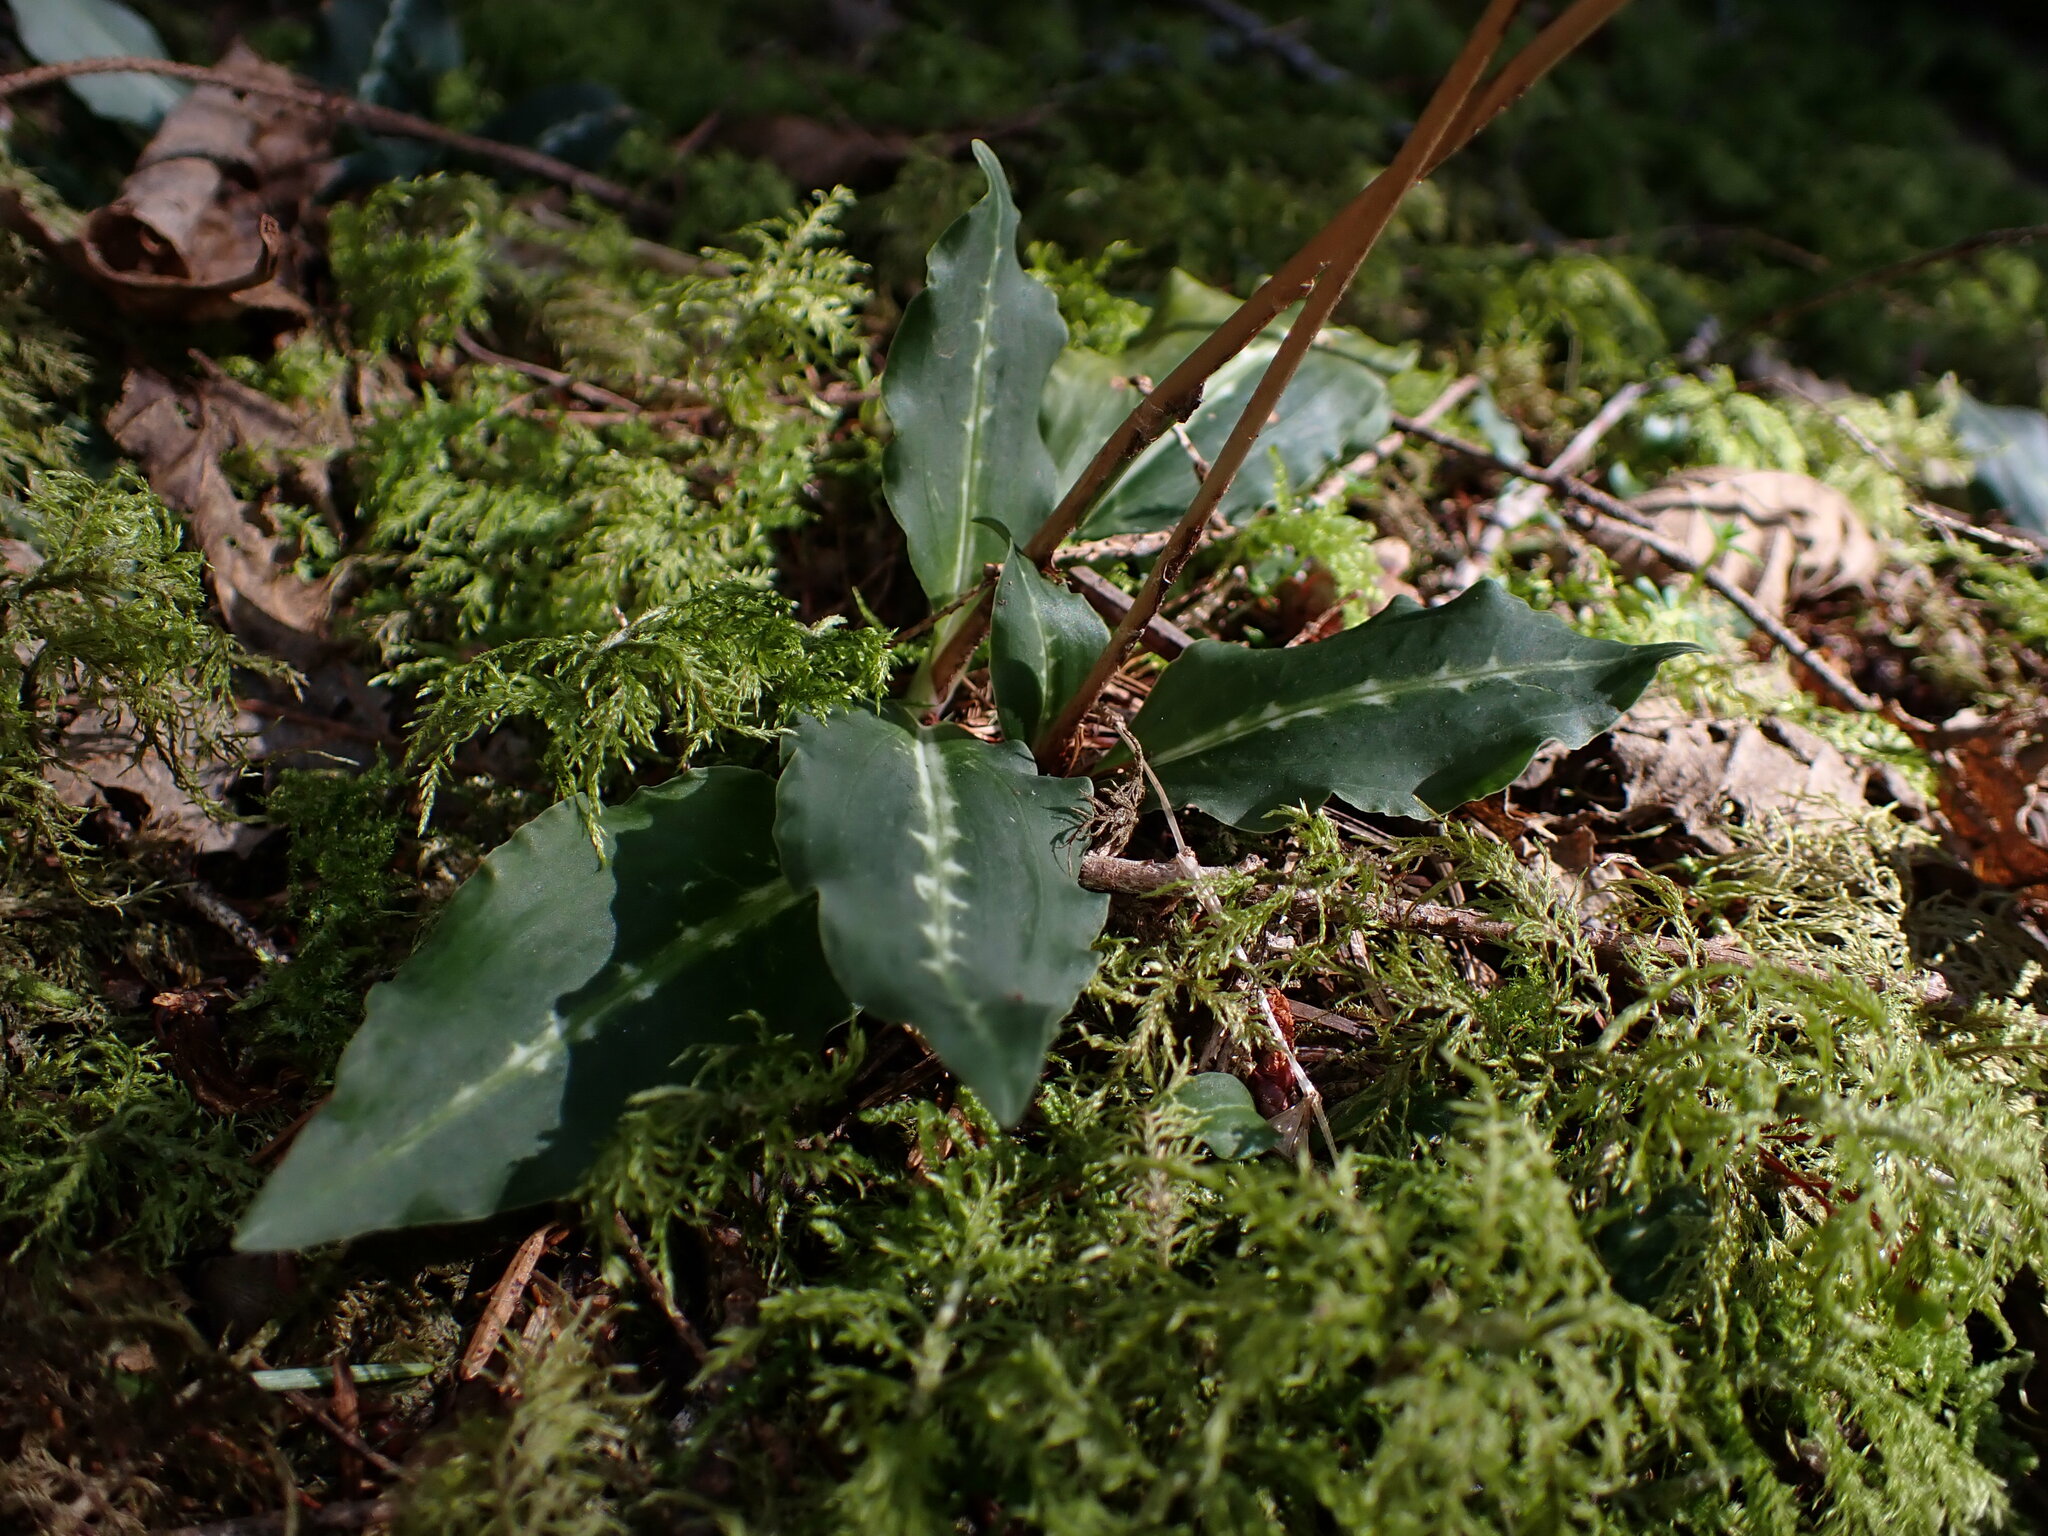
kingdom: Plantae
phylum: Tracheophyta
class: Liliopsida
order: Asparagales
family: Orchidaceae
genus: Goodyera
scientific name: Goodyera oblongifolia
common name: Giant rattlesnake-plantain
